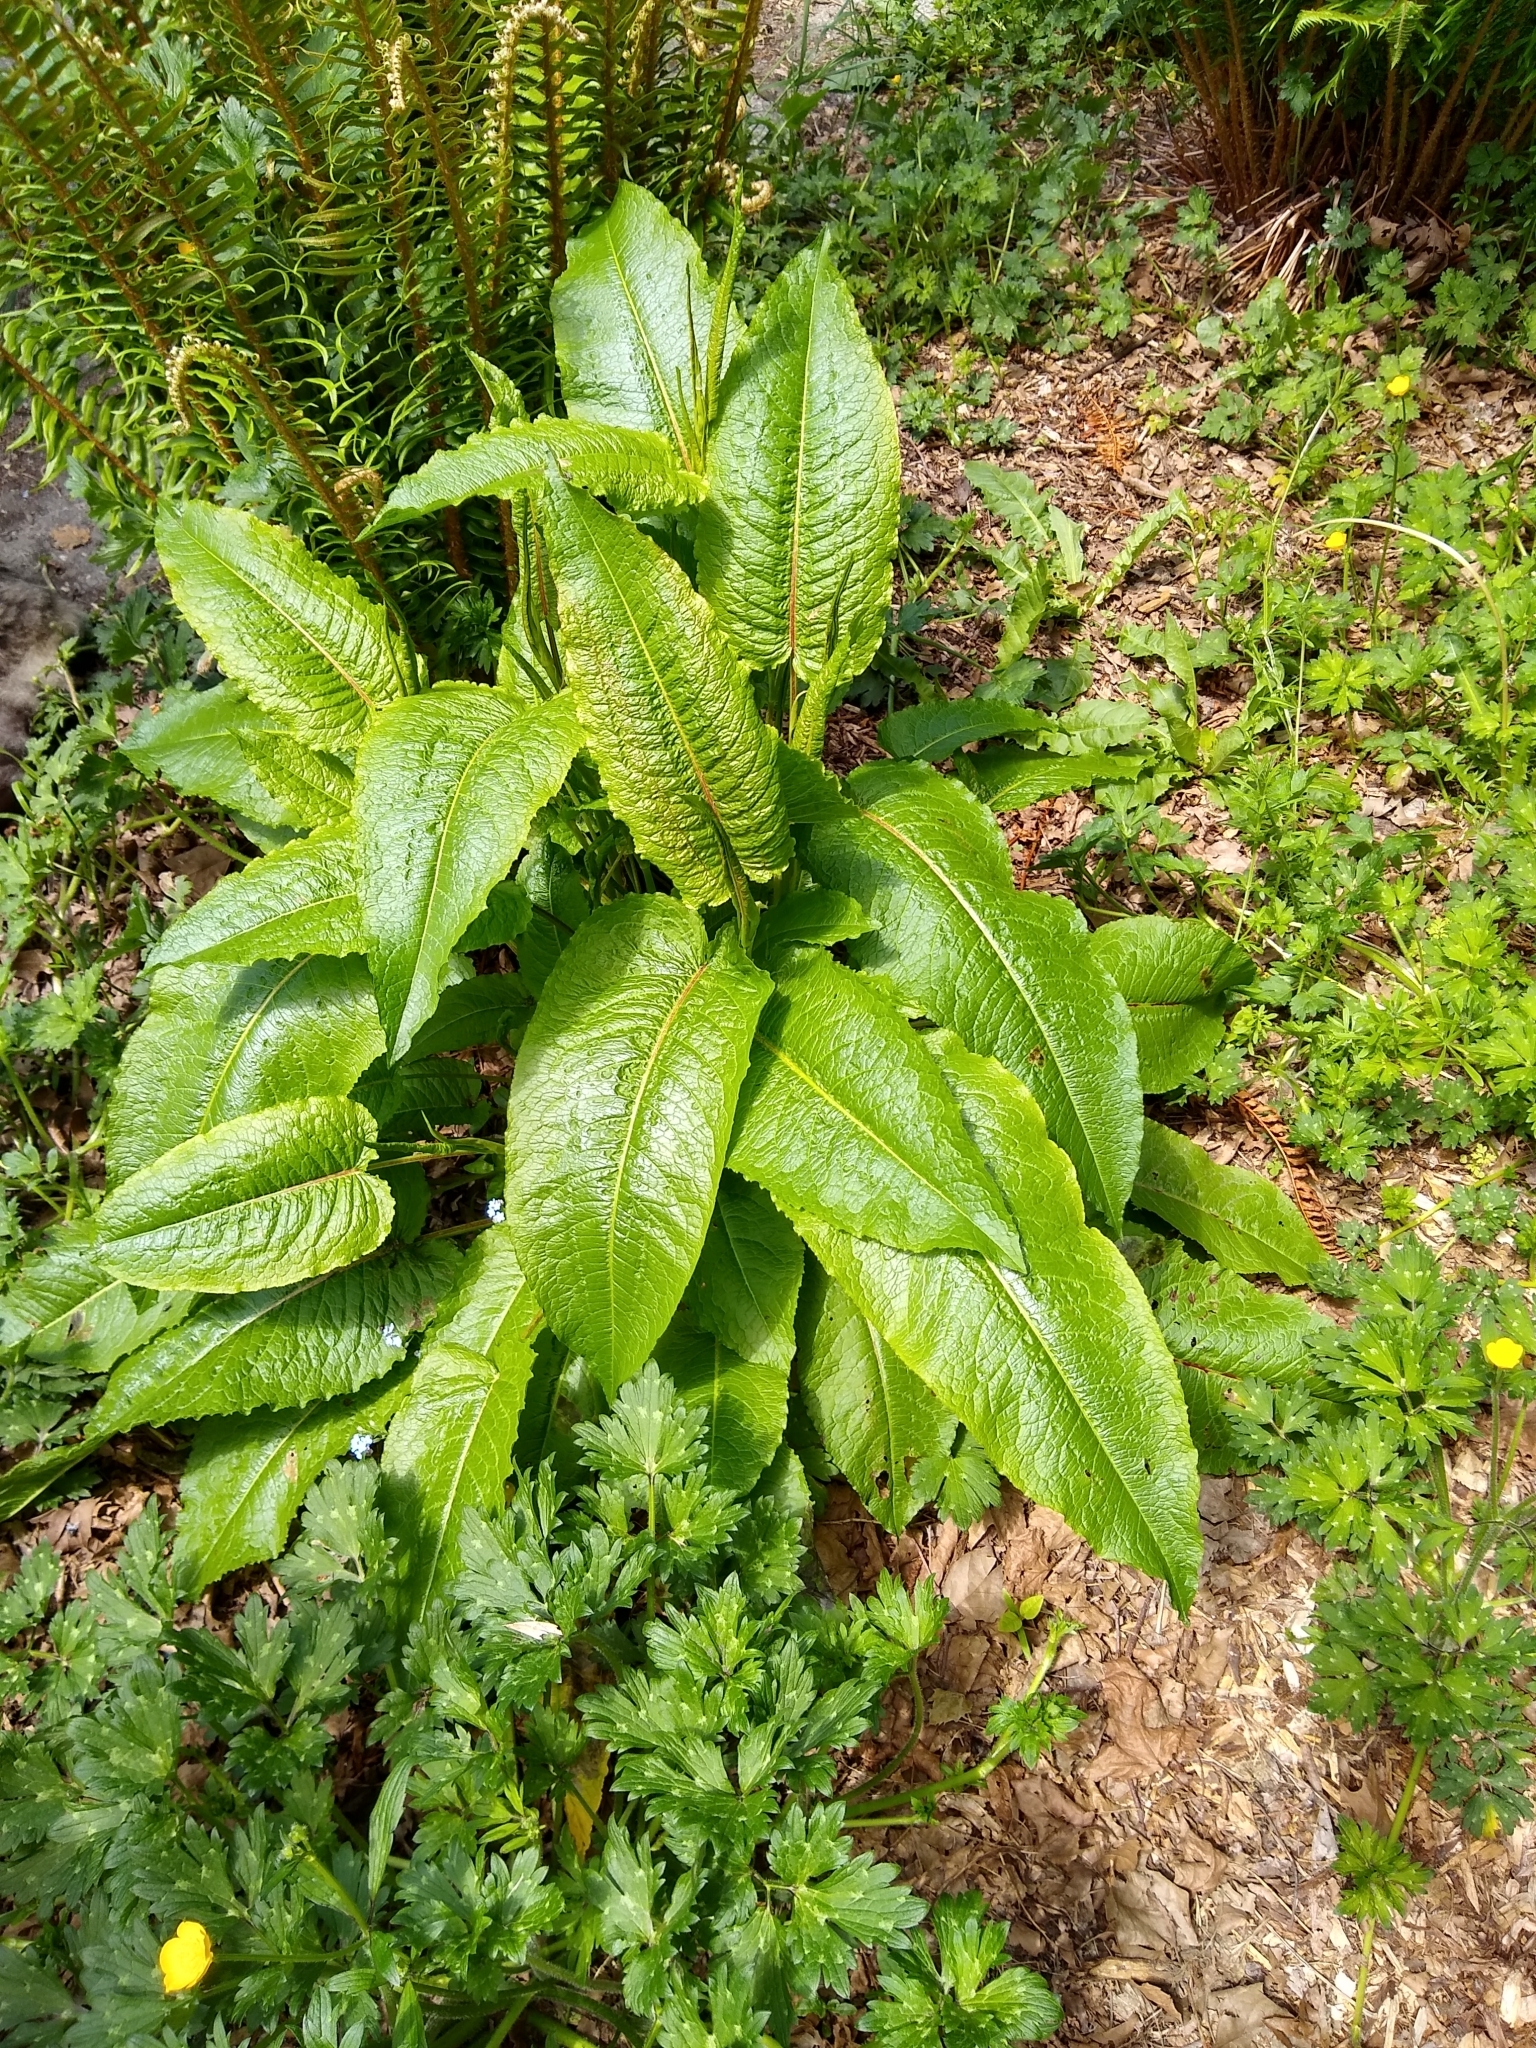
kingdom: Plantae
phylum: Tracheophyta
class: Magnoliopsida
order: Caryophyllales
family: Polygonaceae
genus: Rumex
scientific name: Rumex obtusifolius
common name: Bitter dock
